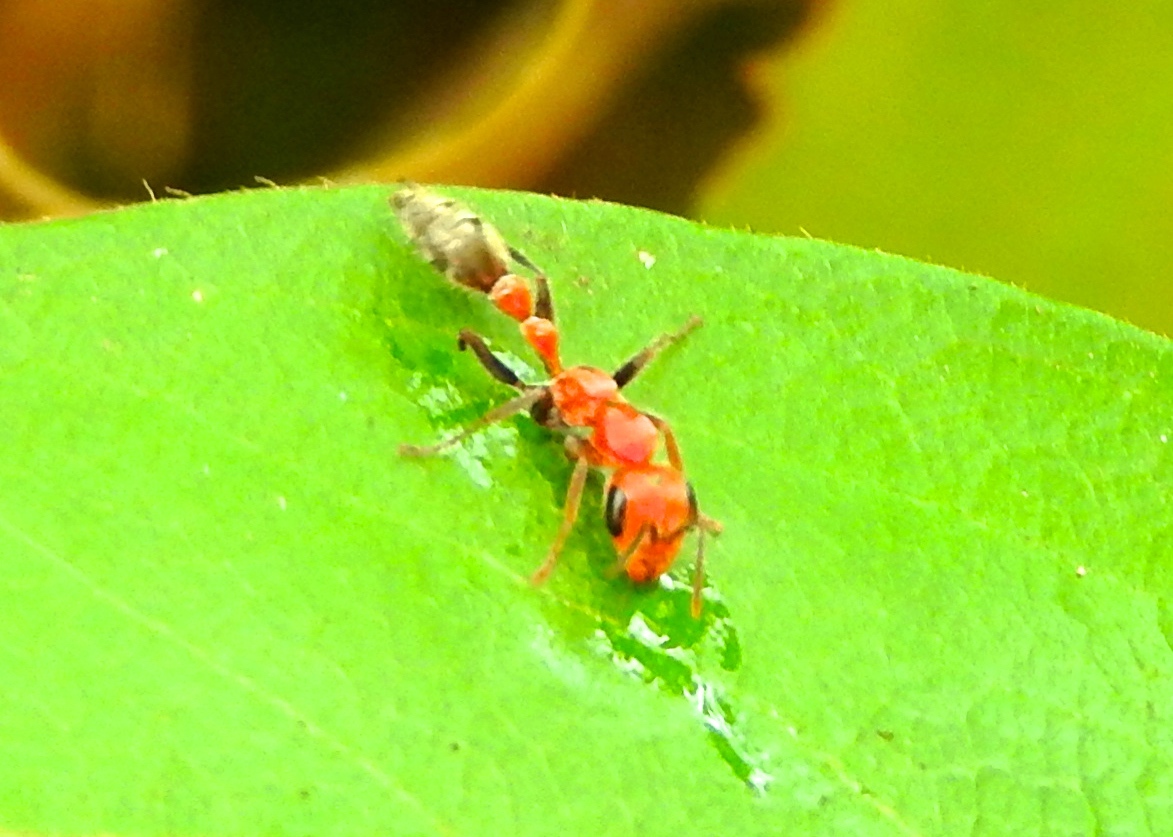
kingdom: Animalia
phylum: Arthropoda
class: Insecta
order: Hymenoptera
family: Formicidae
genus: Pseudomyrmex
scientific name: Pseudomyrmex gracilis
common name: Graceful twig ant
